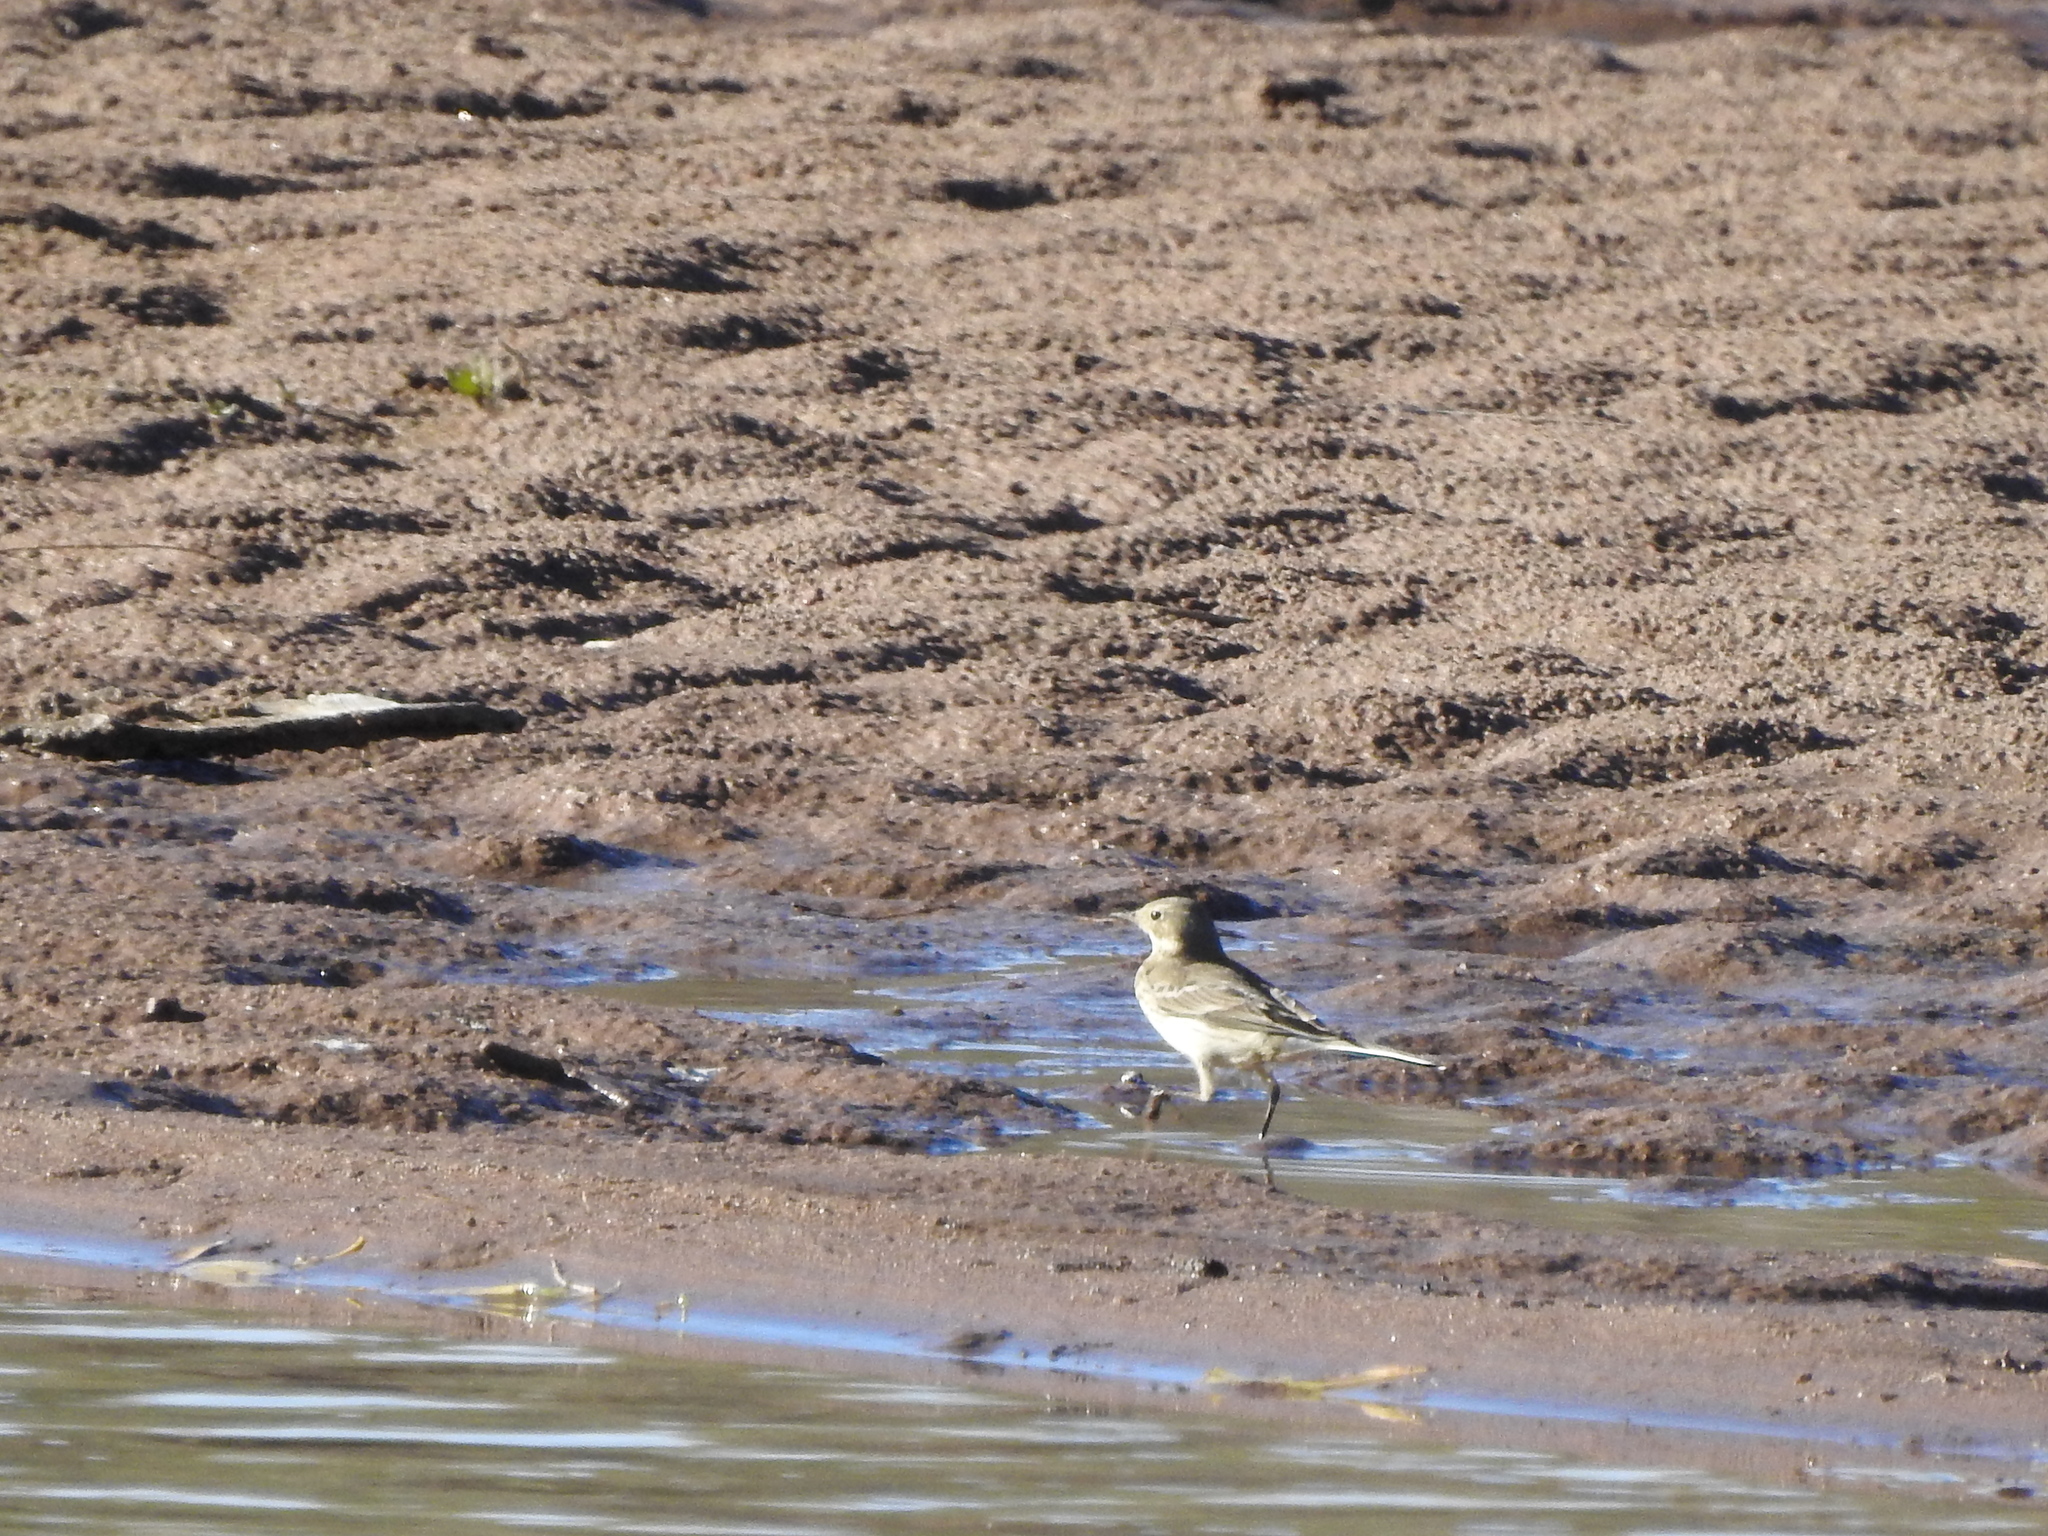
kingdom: Animalia
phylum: Chordata
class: Aves
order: Passeriformes
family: Motacillidae
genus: Anthus
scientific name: Anthus rubescens
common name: Buff-bellied pipit
